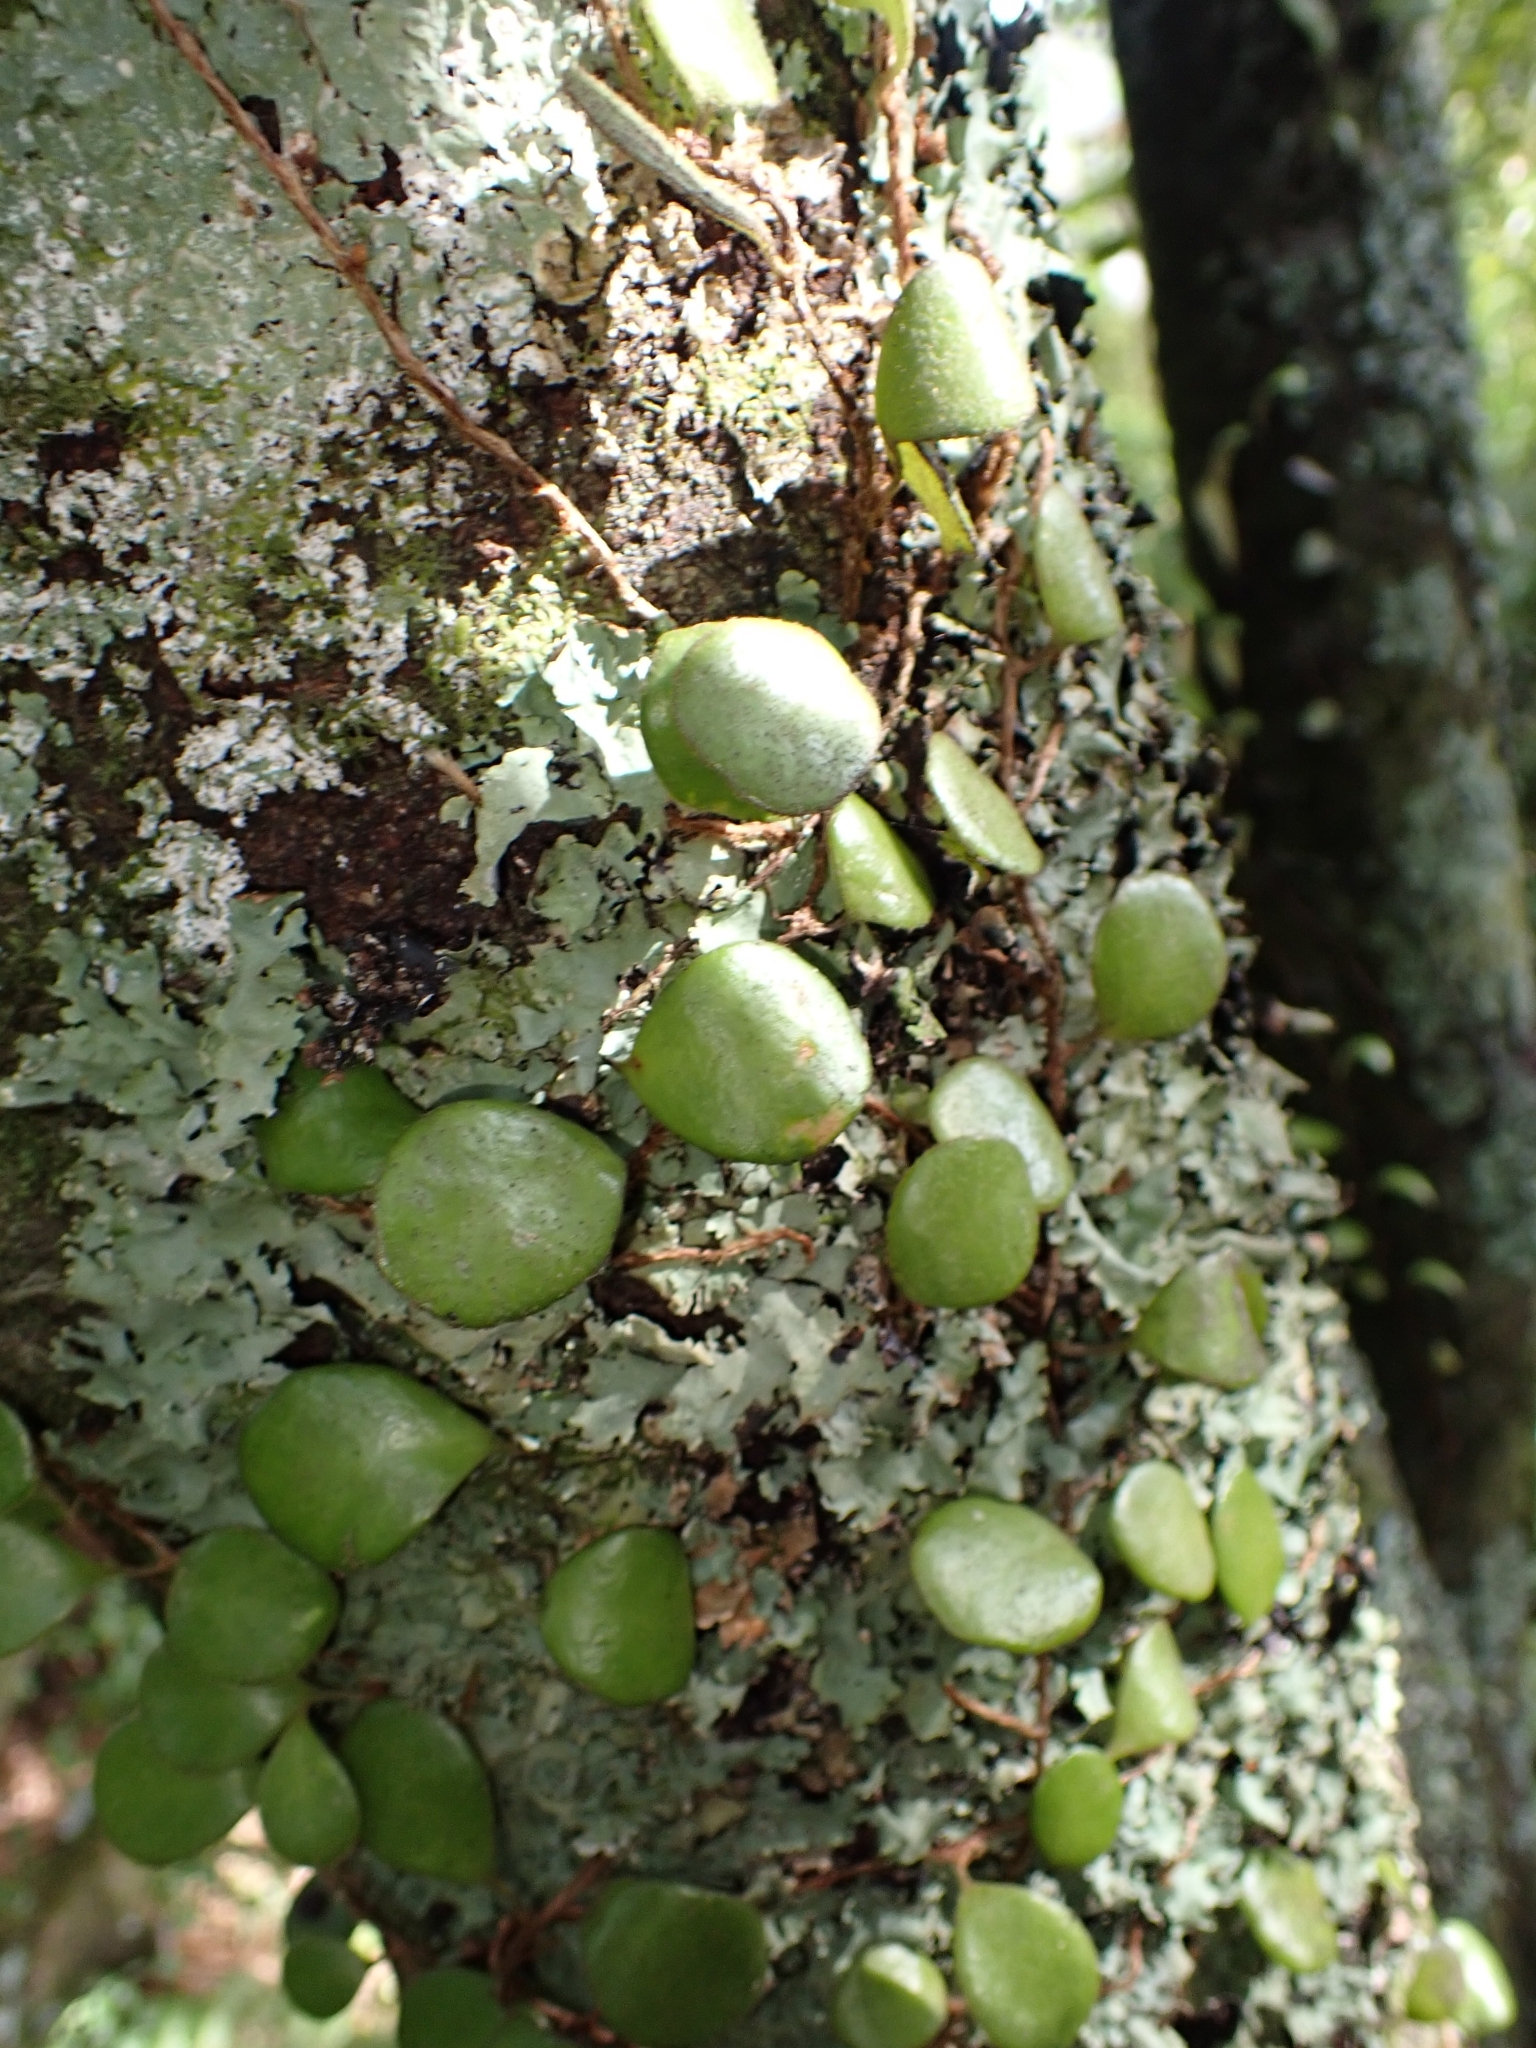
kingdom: Plantae
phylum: Tracheophyta
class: Polypodiopsida
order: Polypodiales
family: Polypodiaceae
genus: Pyrrosia
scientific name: Pyrrosia eleagnifolia
